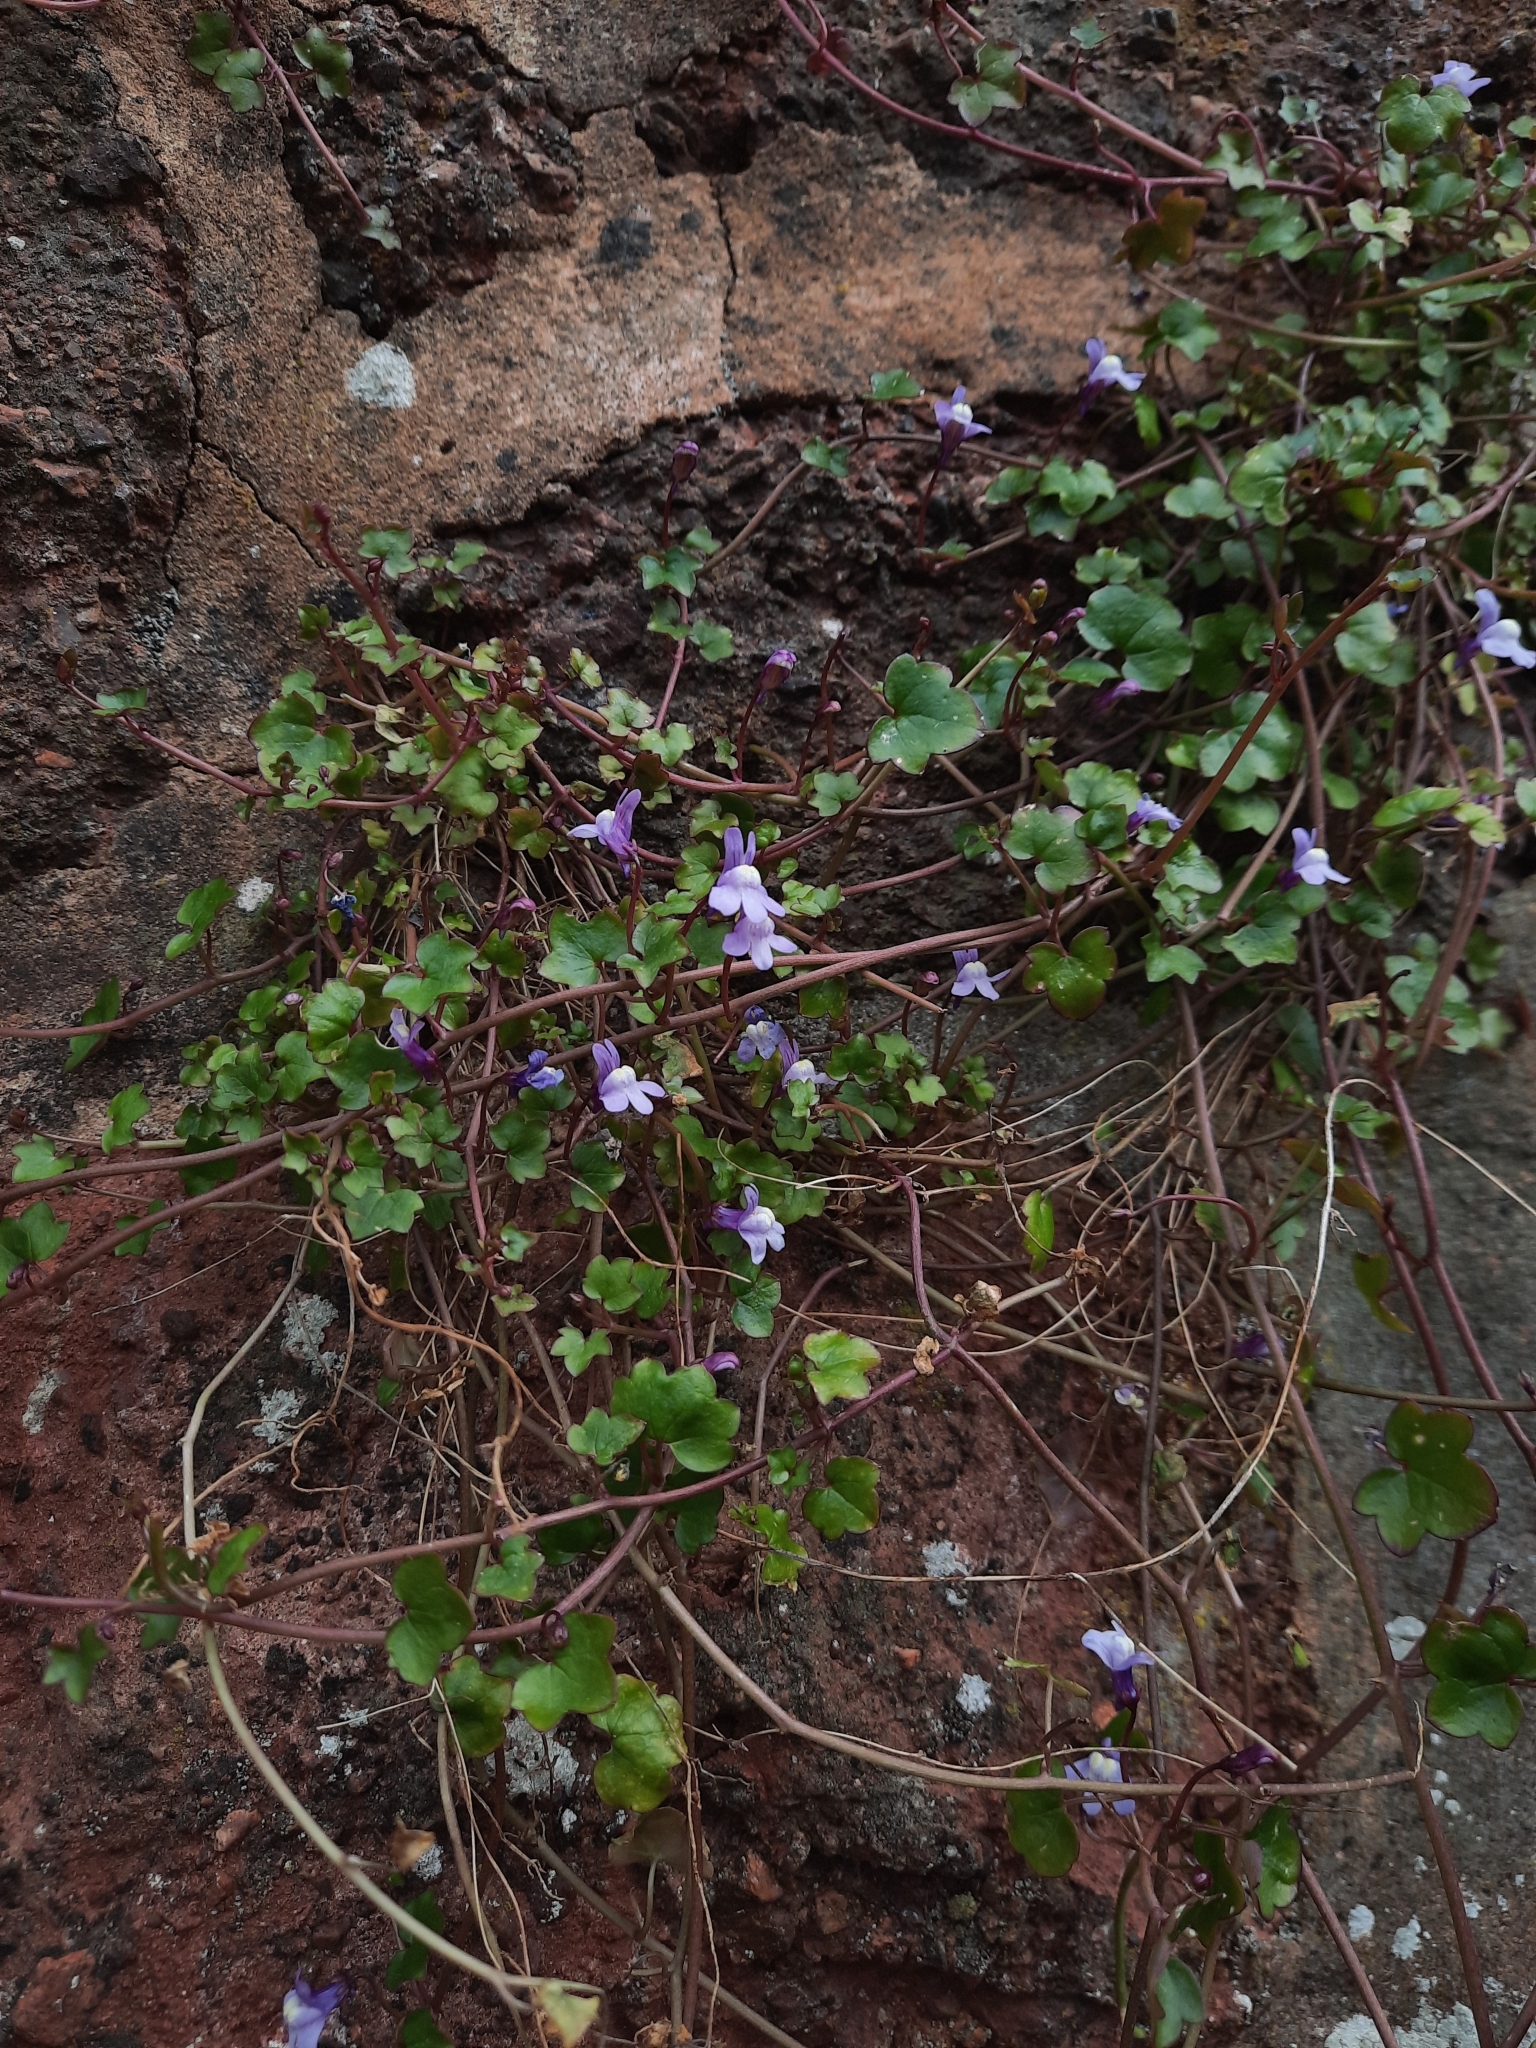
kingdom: Plantae
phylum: Tracheophyta
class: Magnoliopsida
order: Lamiales
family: Plantaginaceae
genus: Cymbalaria
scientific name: Cymbalaria muralis
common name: Ivy-leaved toadflax
